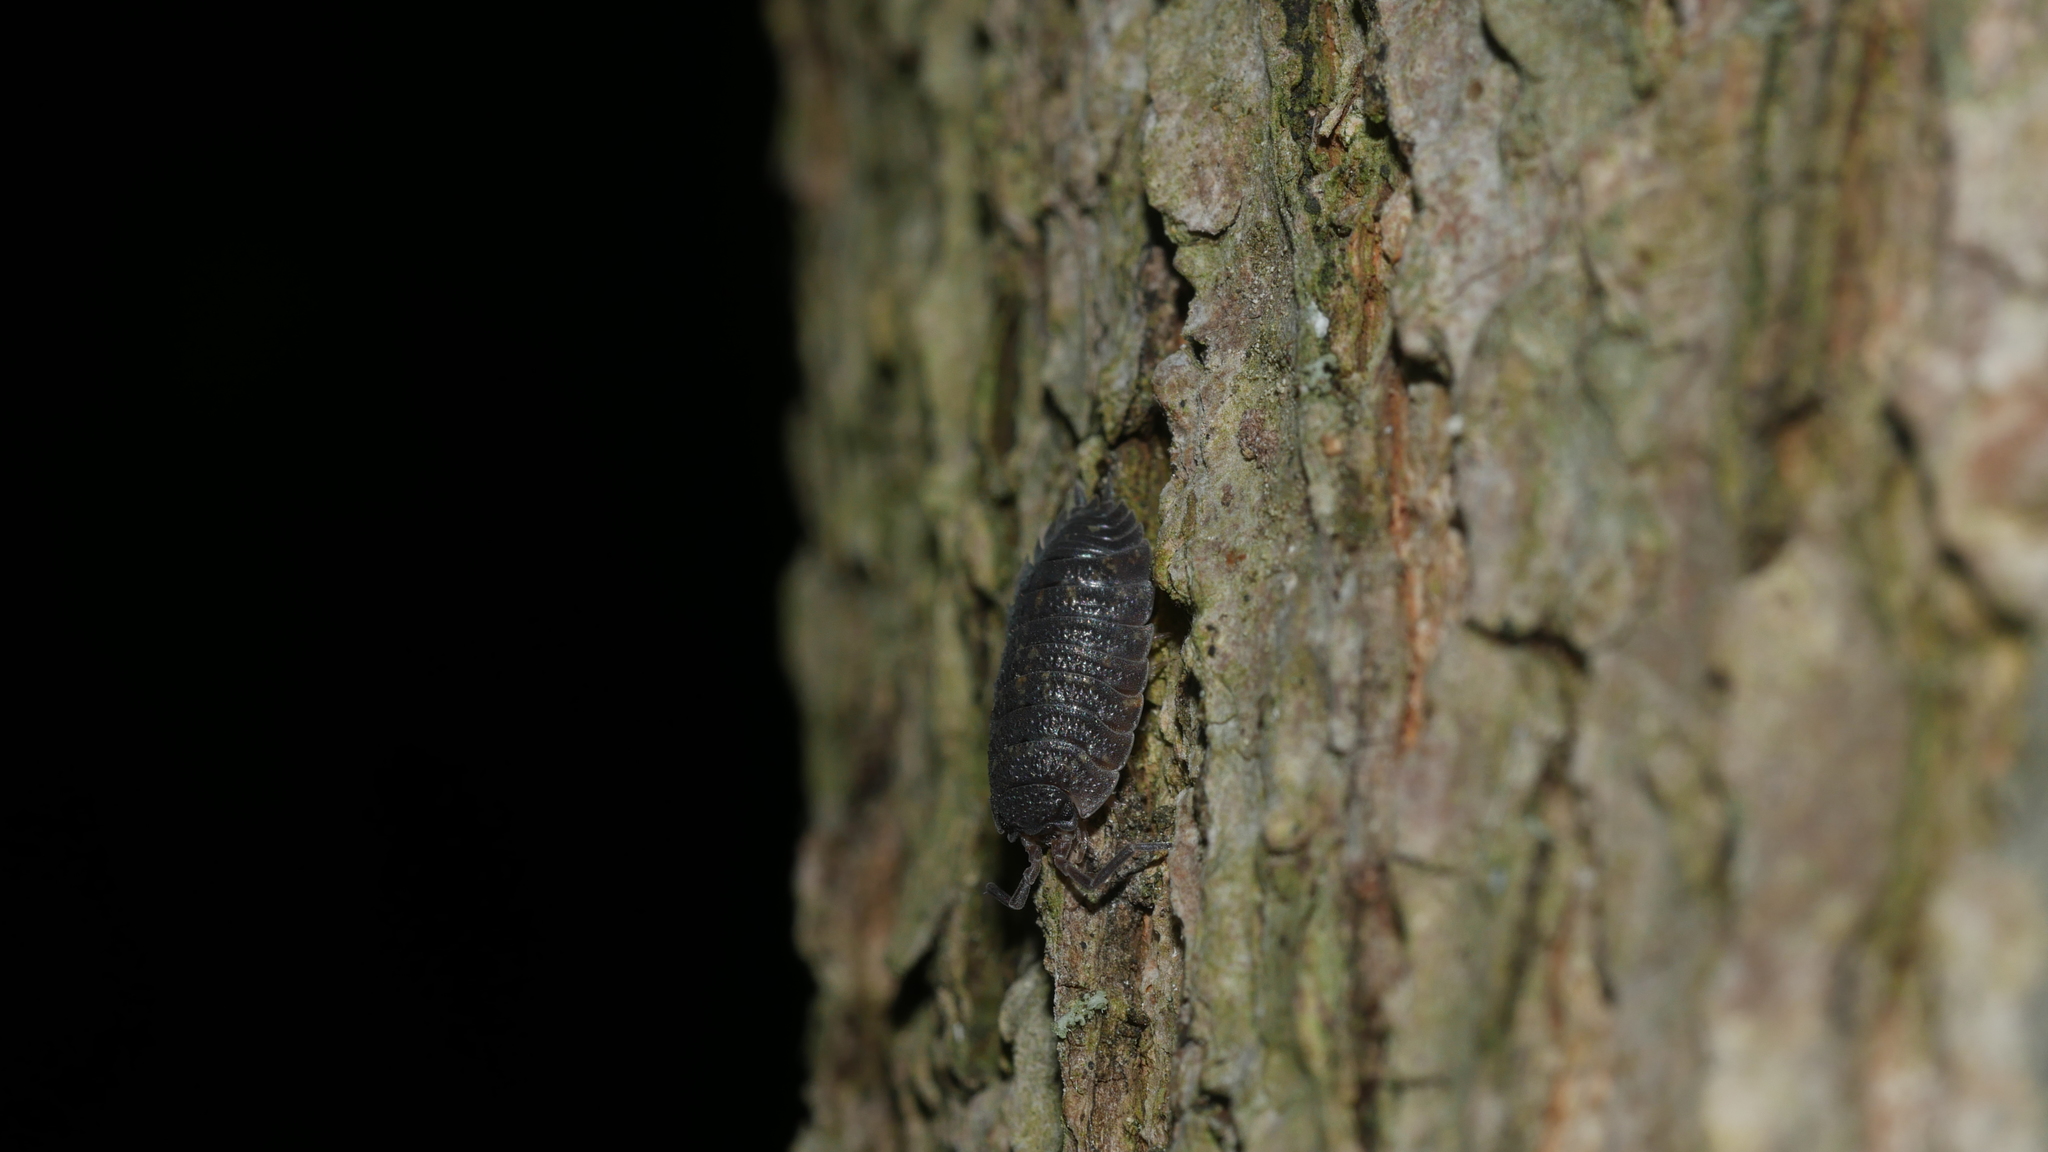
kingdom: Animalia
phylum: Arthropoda
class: Malacostraca
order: Isopoda
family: Porcellionidae
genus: Porcellio
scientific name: Porcellio scaber
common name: Common rough woodlouse
